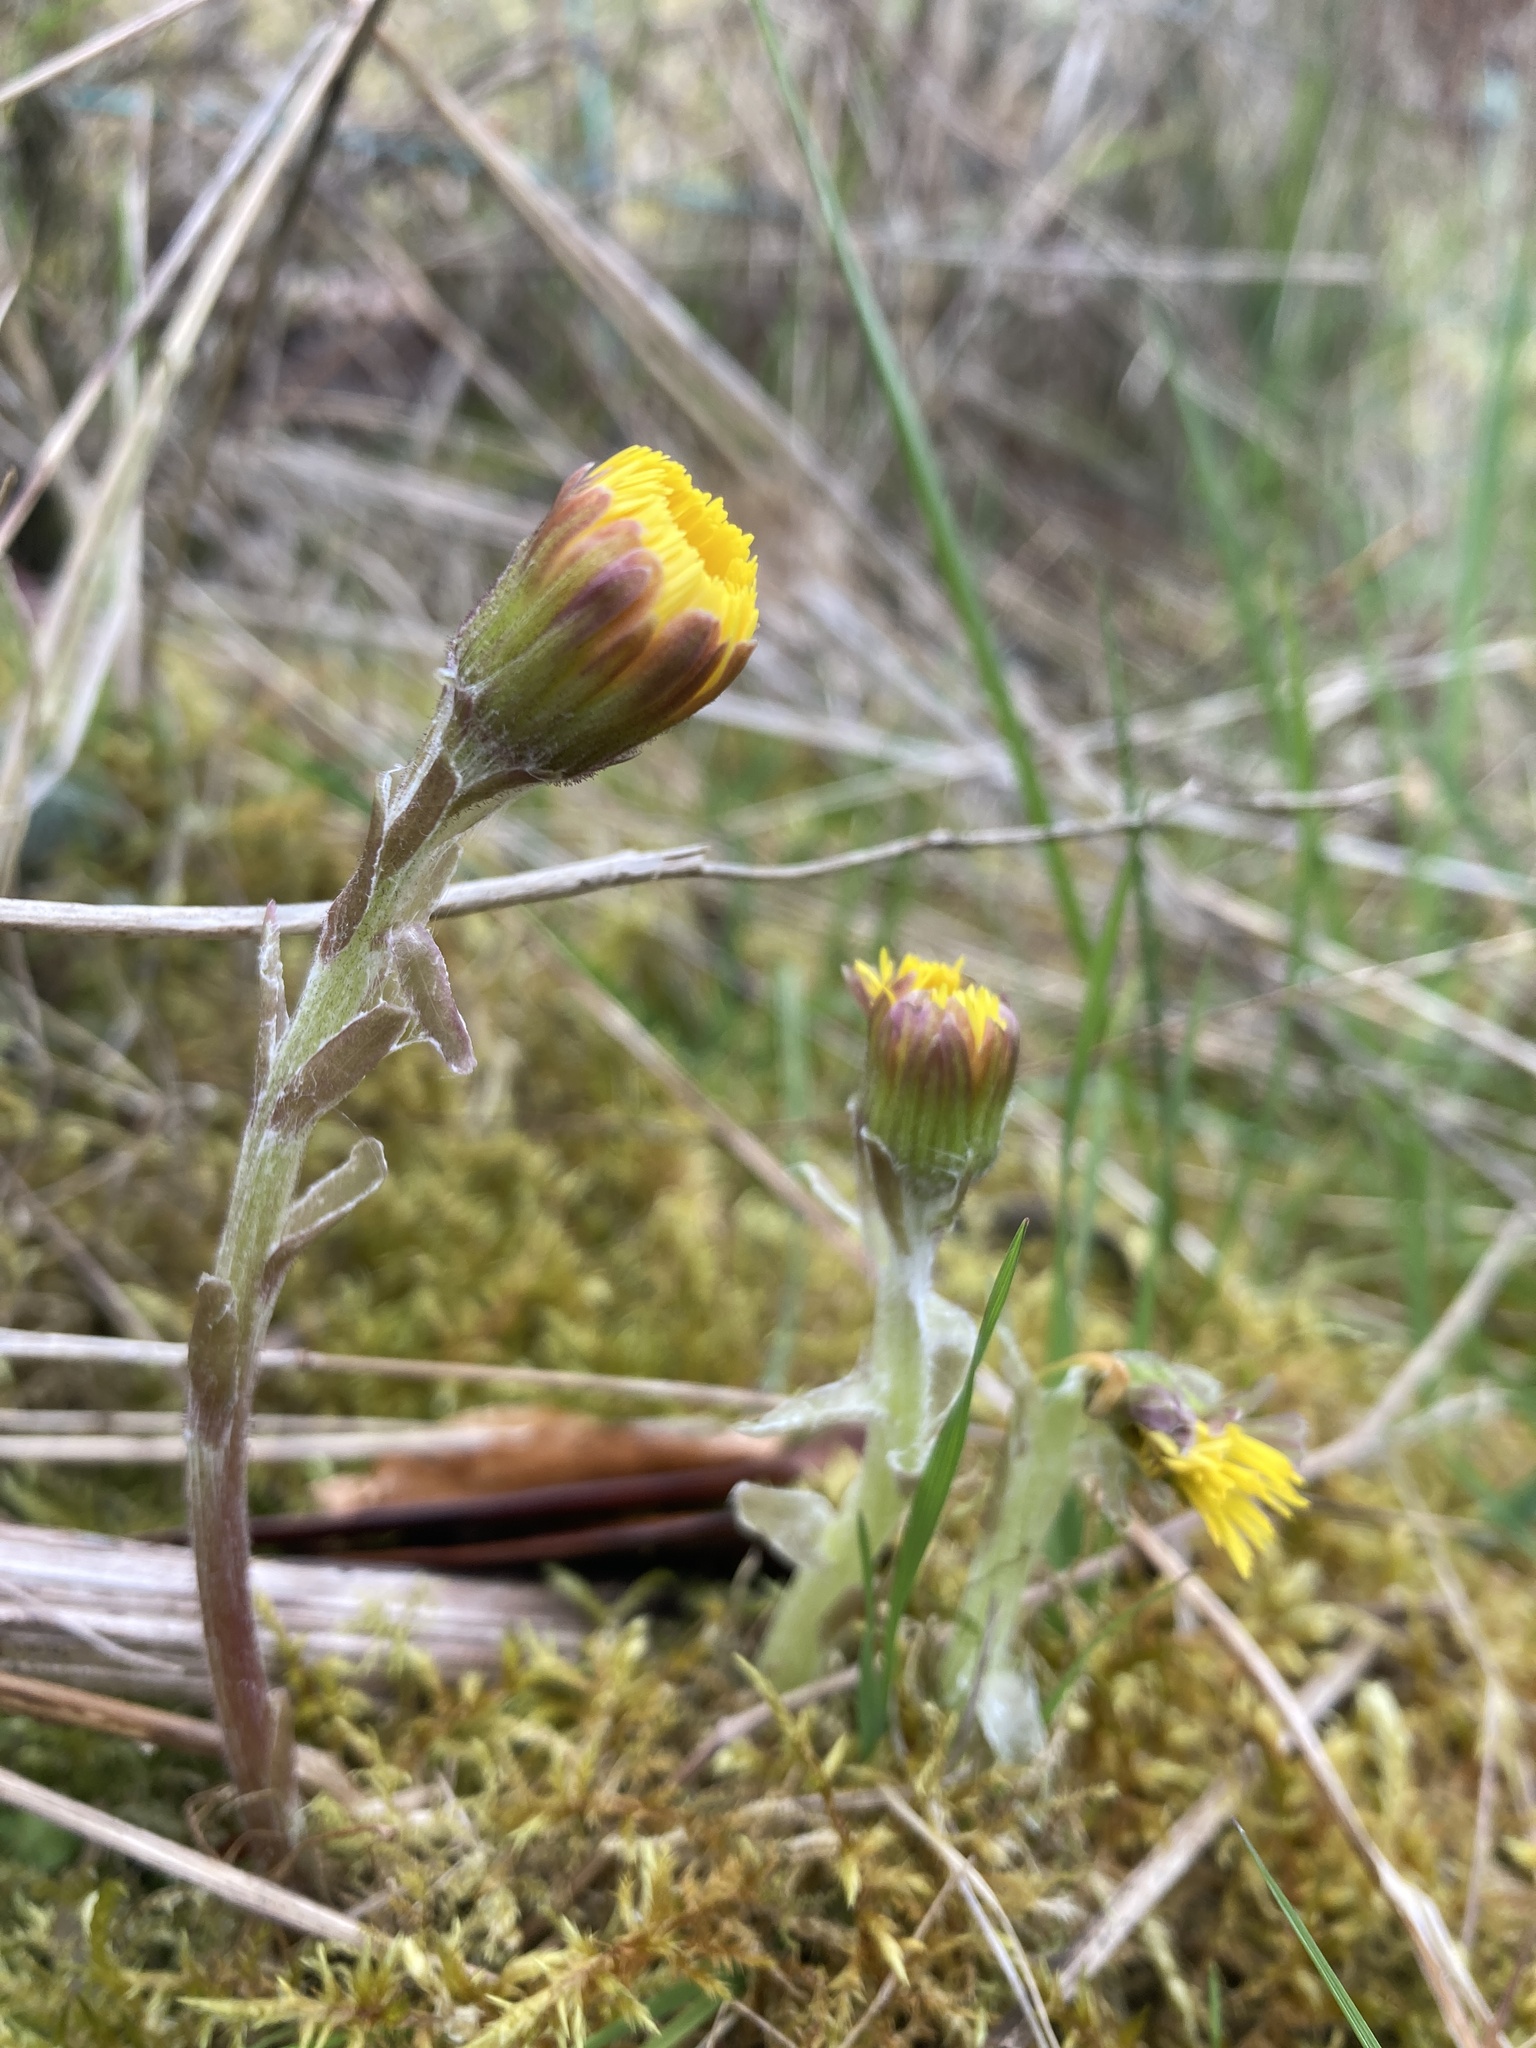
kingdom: Plantae
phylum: Tracheophyta
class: Magnoliopsida
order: Asterales
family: Asteraceae
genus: Tussilago
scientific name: Tussilago farfara
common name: Coltsfoot
